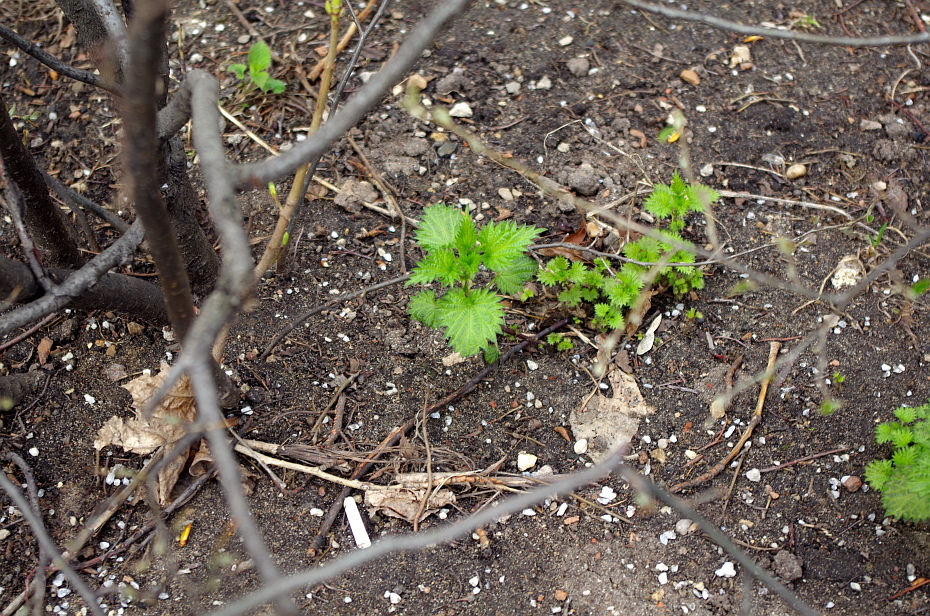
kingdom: Plantae
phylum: Tracheophyta
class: Magnoliopsida
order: Rosales
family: Urticaceae
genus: Urtica
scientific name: Urtica dioica
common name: Common nettle
